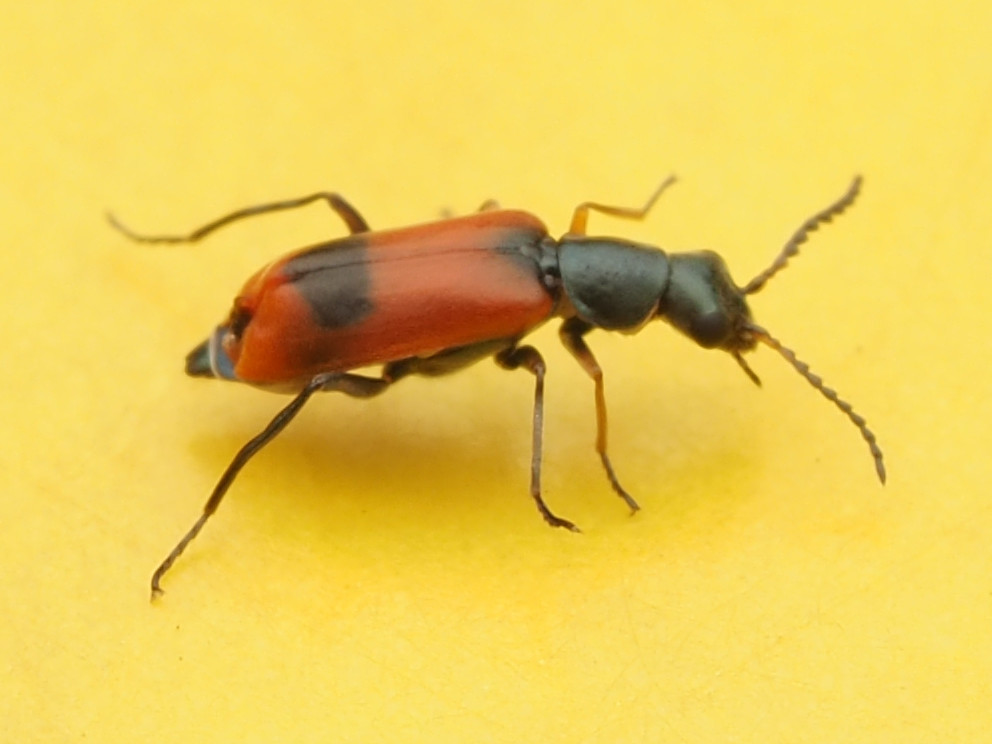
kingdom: Animalia
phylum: Arthropoda
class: Insecta
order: Coleoptera
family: Melyridae
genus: Anthocomus
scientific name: Anthocomus equestris
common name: Black-banded soft-winged flower beetle
